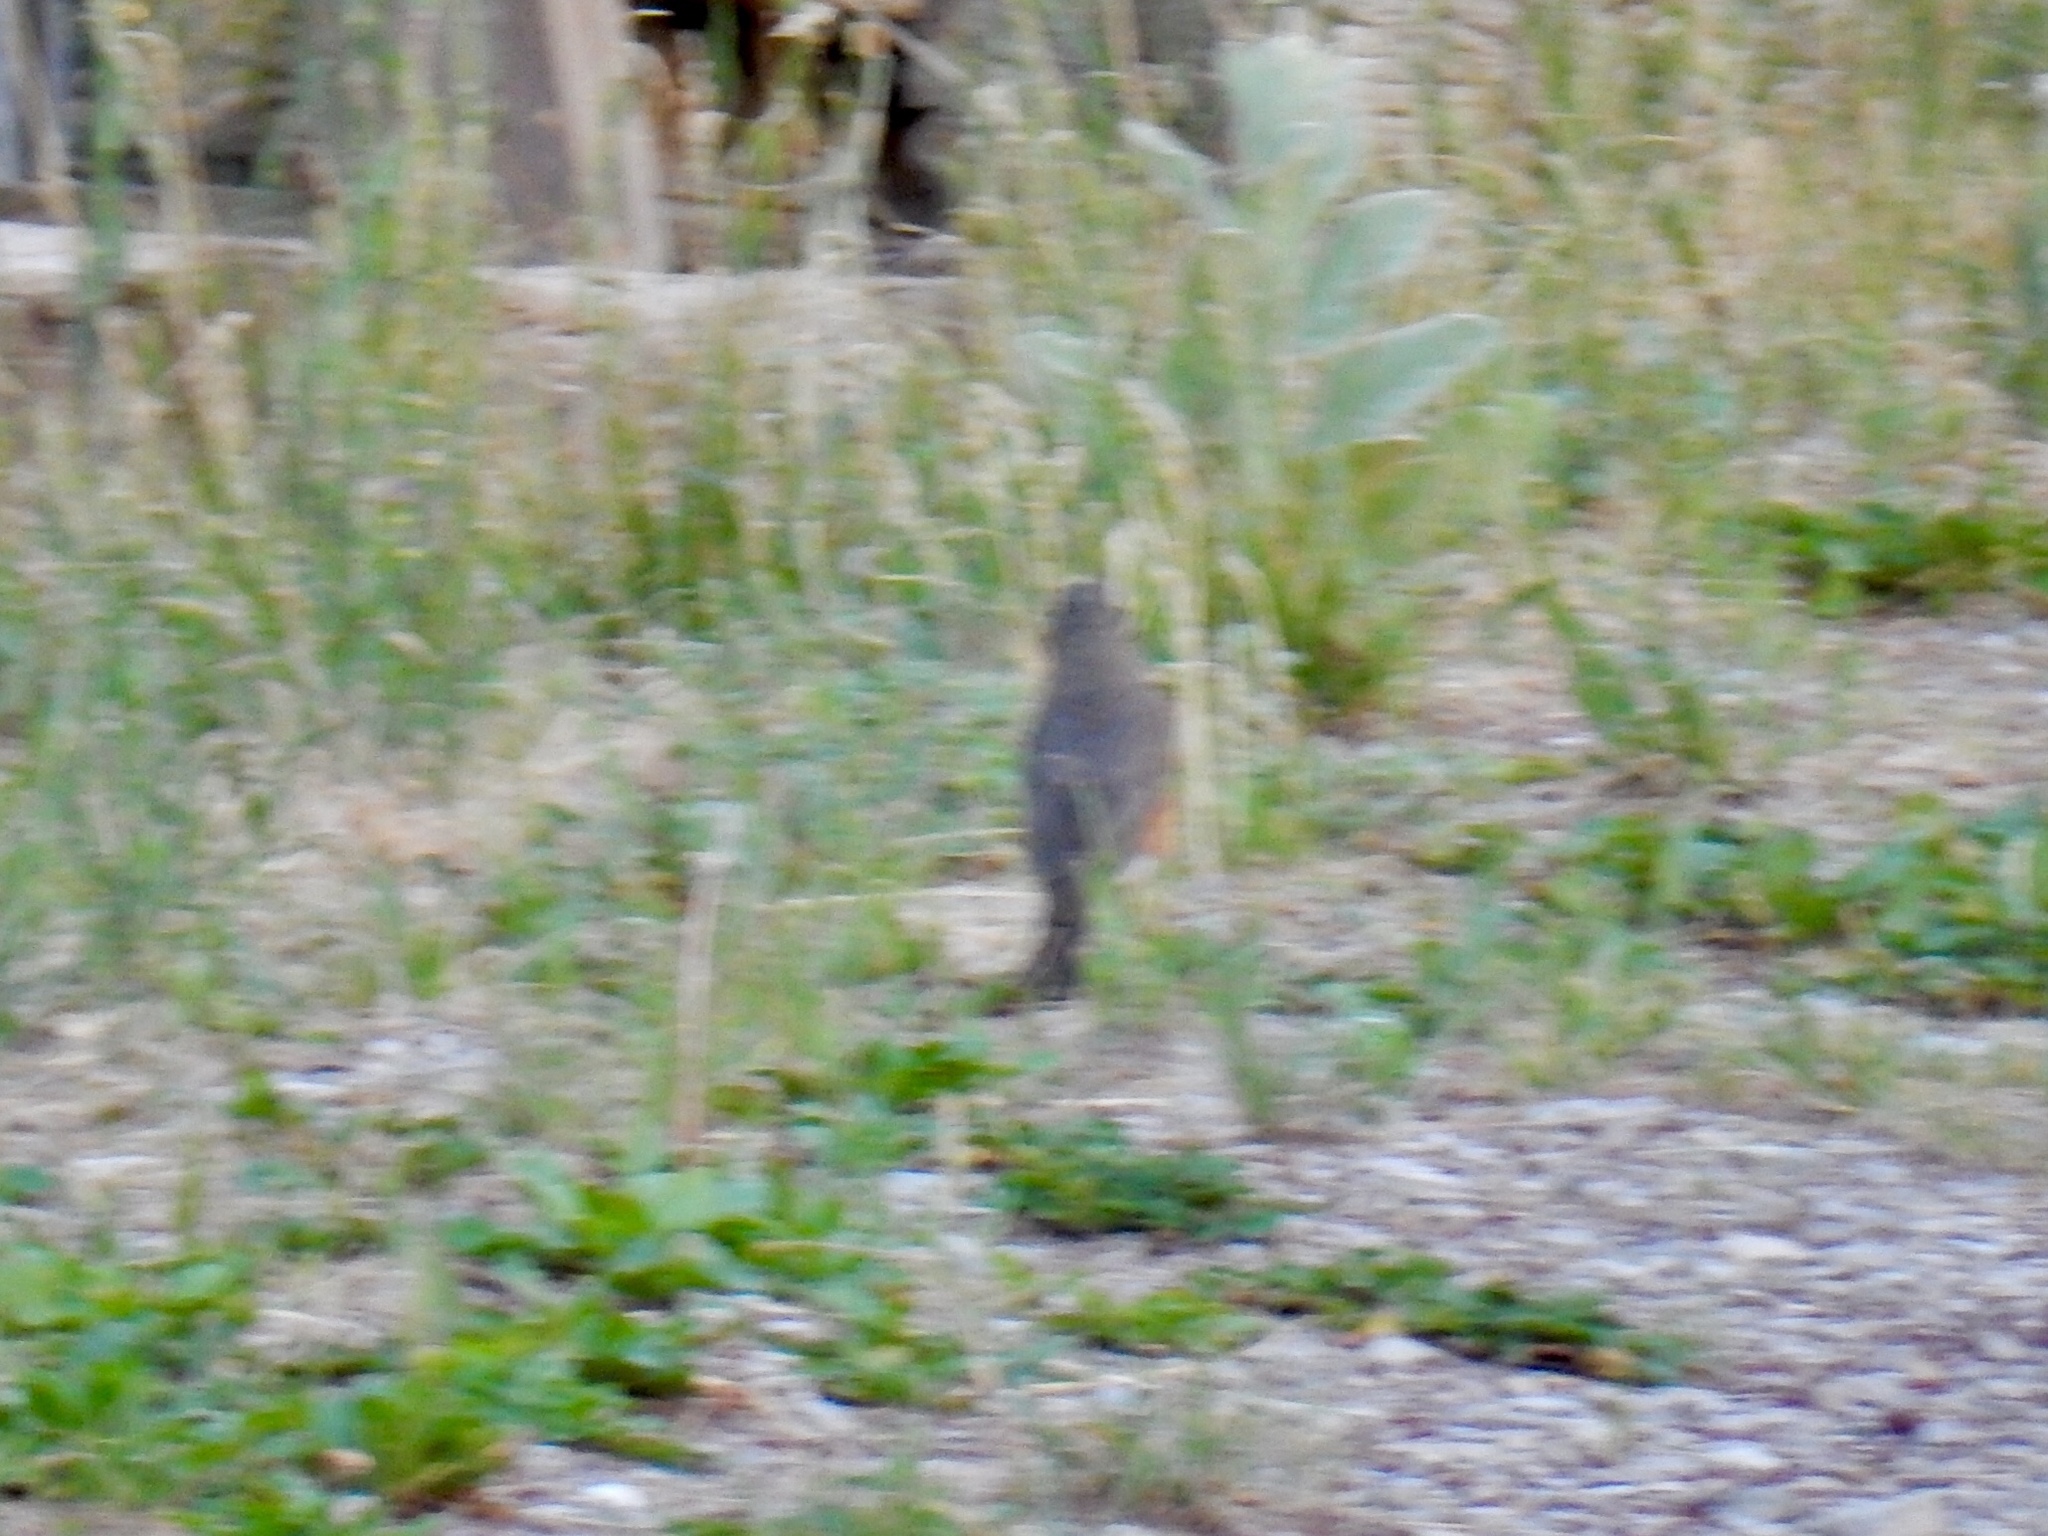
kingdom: Animalia
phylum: Chordata
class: Aves
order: Passeriformes
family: Turdidae
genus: Turdus
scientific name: Turdus migratorius
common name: American robin
